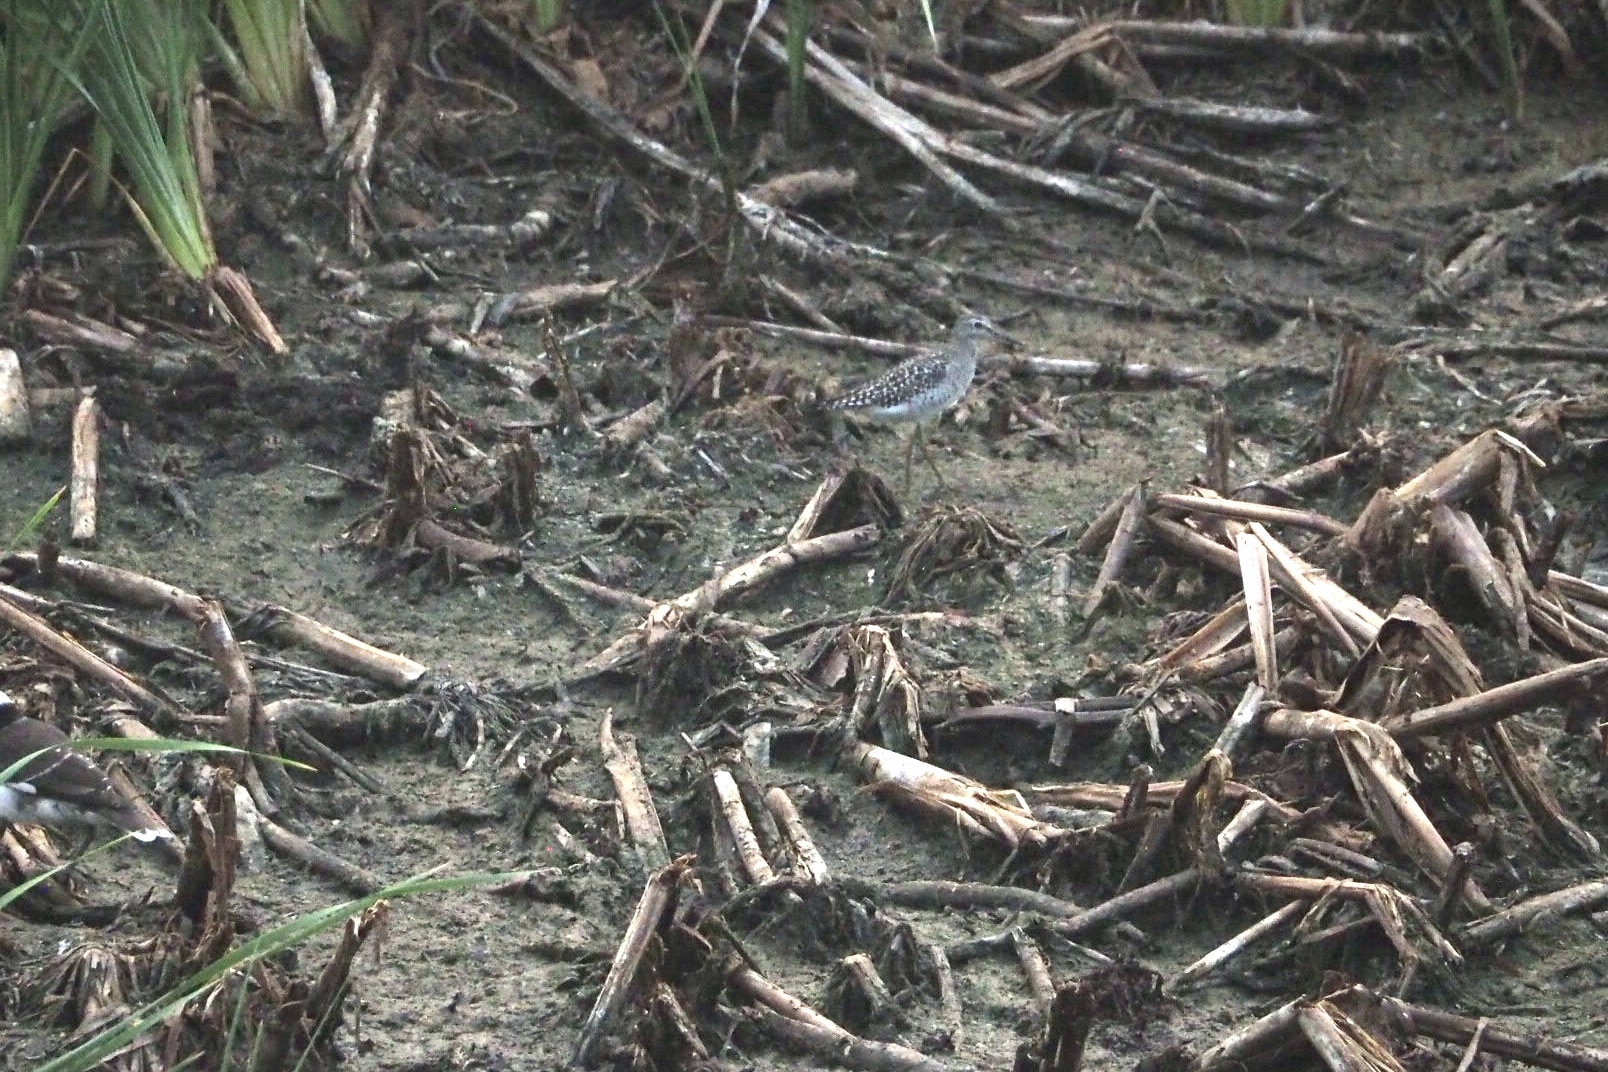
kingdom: Animalia
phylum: Chordata
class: Aves
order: Charadriiformes
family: Scolopacidae
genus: Tringa
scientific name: Tringa glareola
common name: Wood sandpiper
